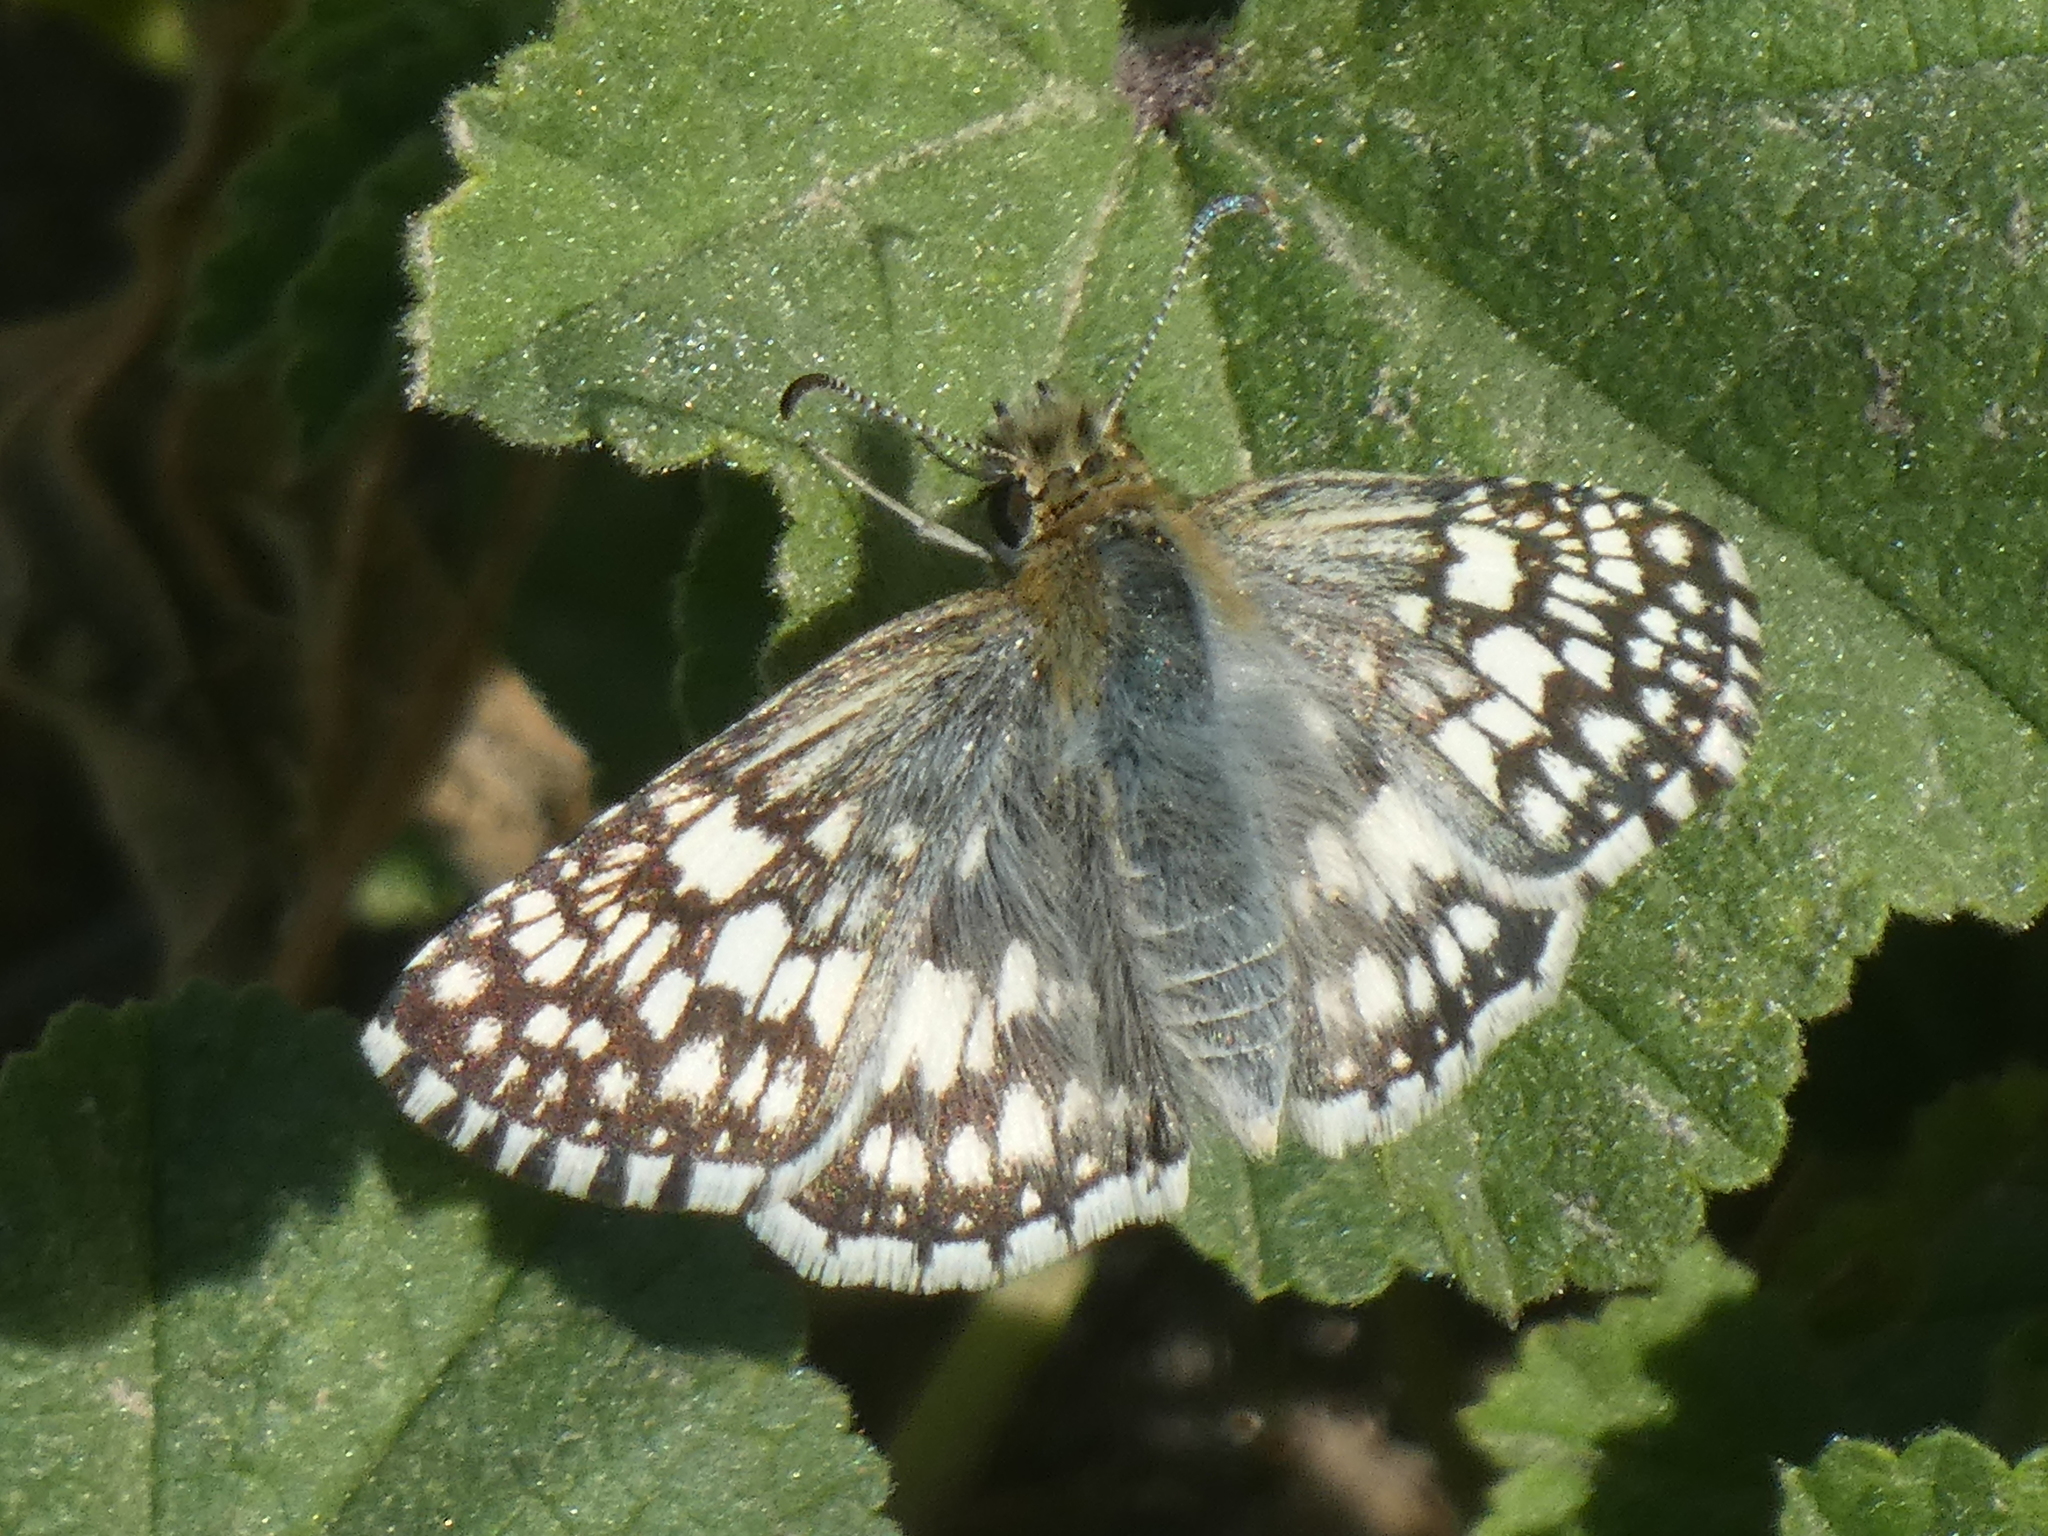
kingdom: Animalia
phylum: Arthropoda
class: Insecta
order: Lepidoptera
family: Hesperiidae
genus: Burnsius
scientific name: Burnsius albezens
